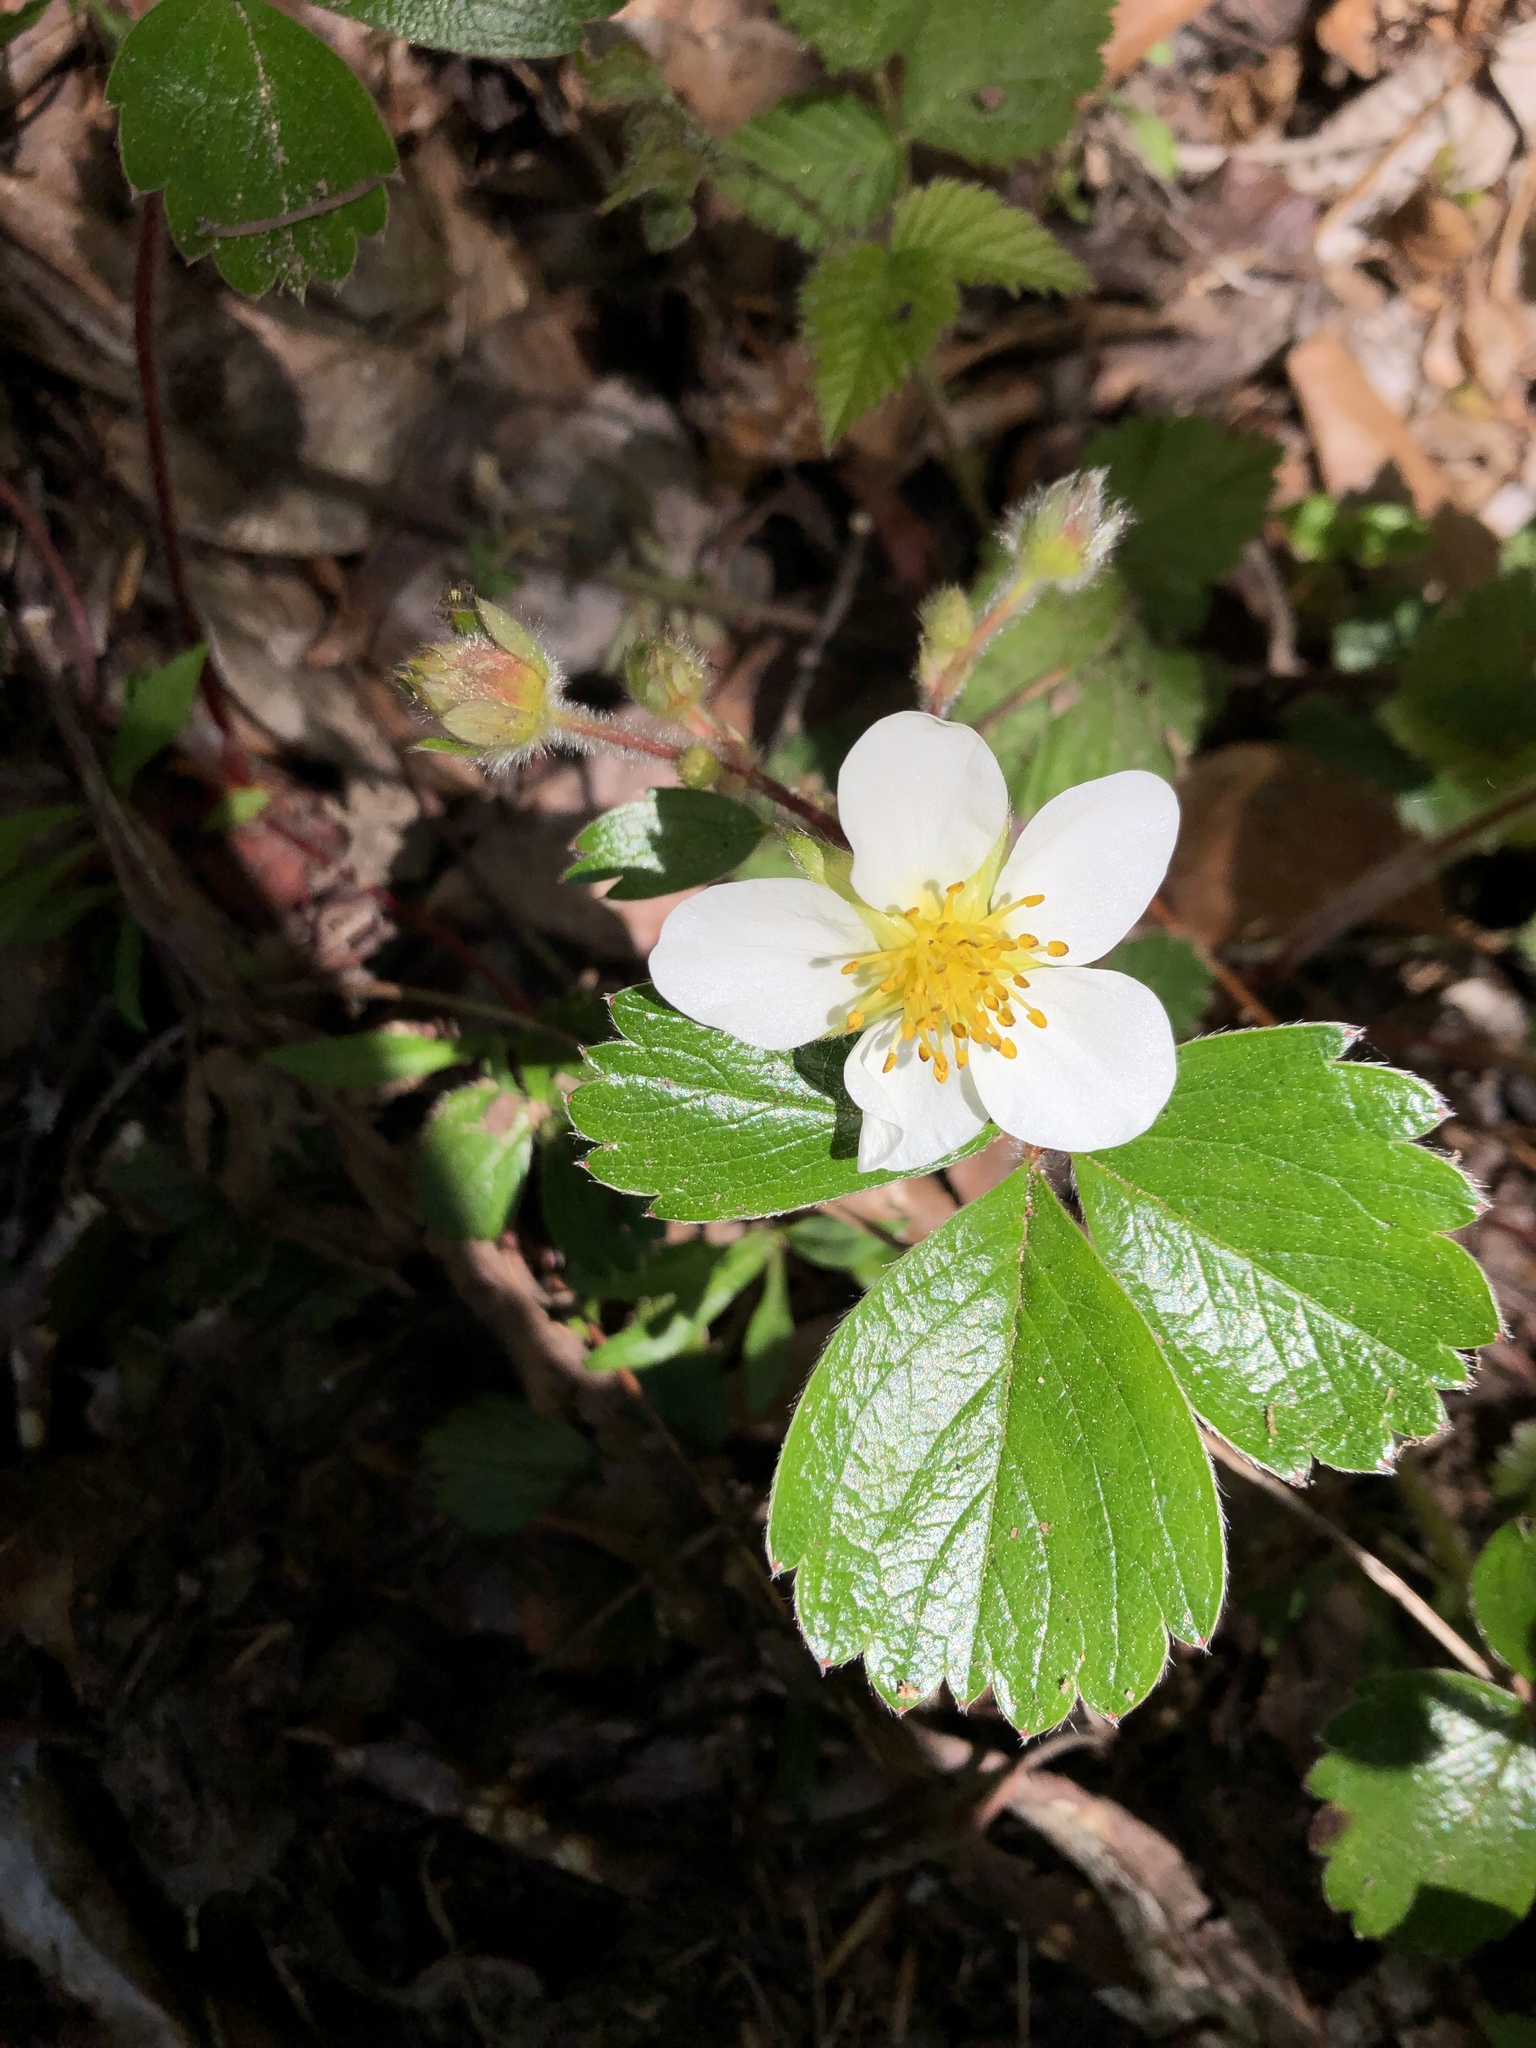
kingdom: Plantae
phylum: Tracheophyta
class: Magnoliopsida
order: Rosales
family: Rosaceae
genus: Fragaria
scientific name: Fragaria chiloensis
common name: Beach strawberry
